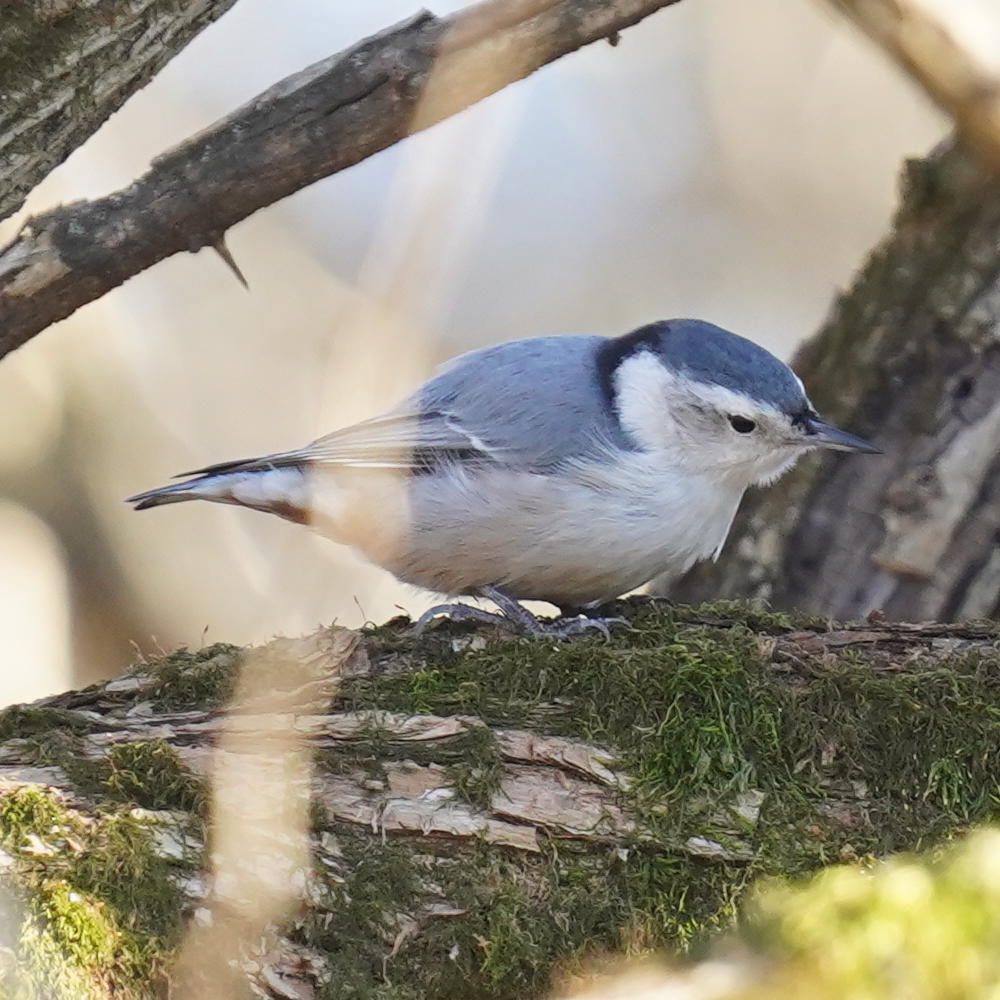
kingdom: Animalia
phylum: Chordata
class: Aves
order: Passeriformes
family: Sittidae
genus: Sitta
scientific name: Sitta carolinensis
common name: White-breasted nuthatch
